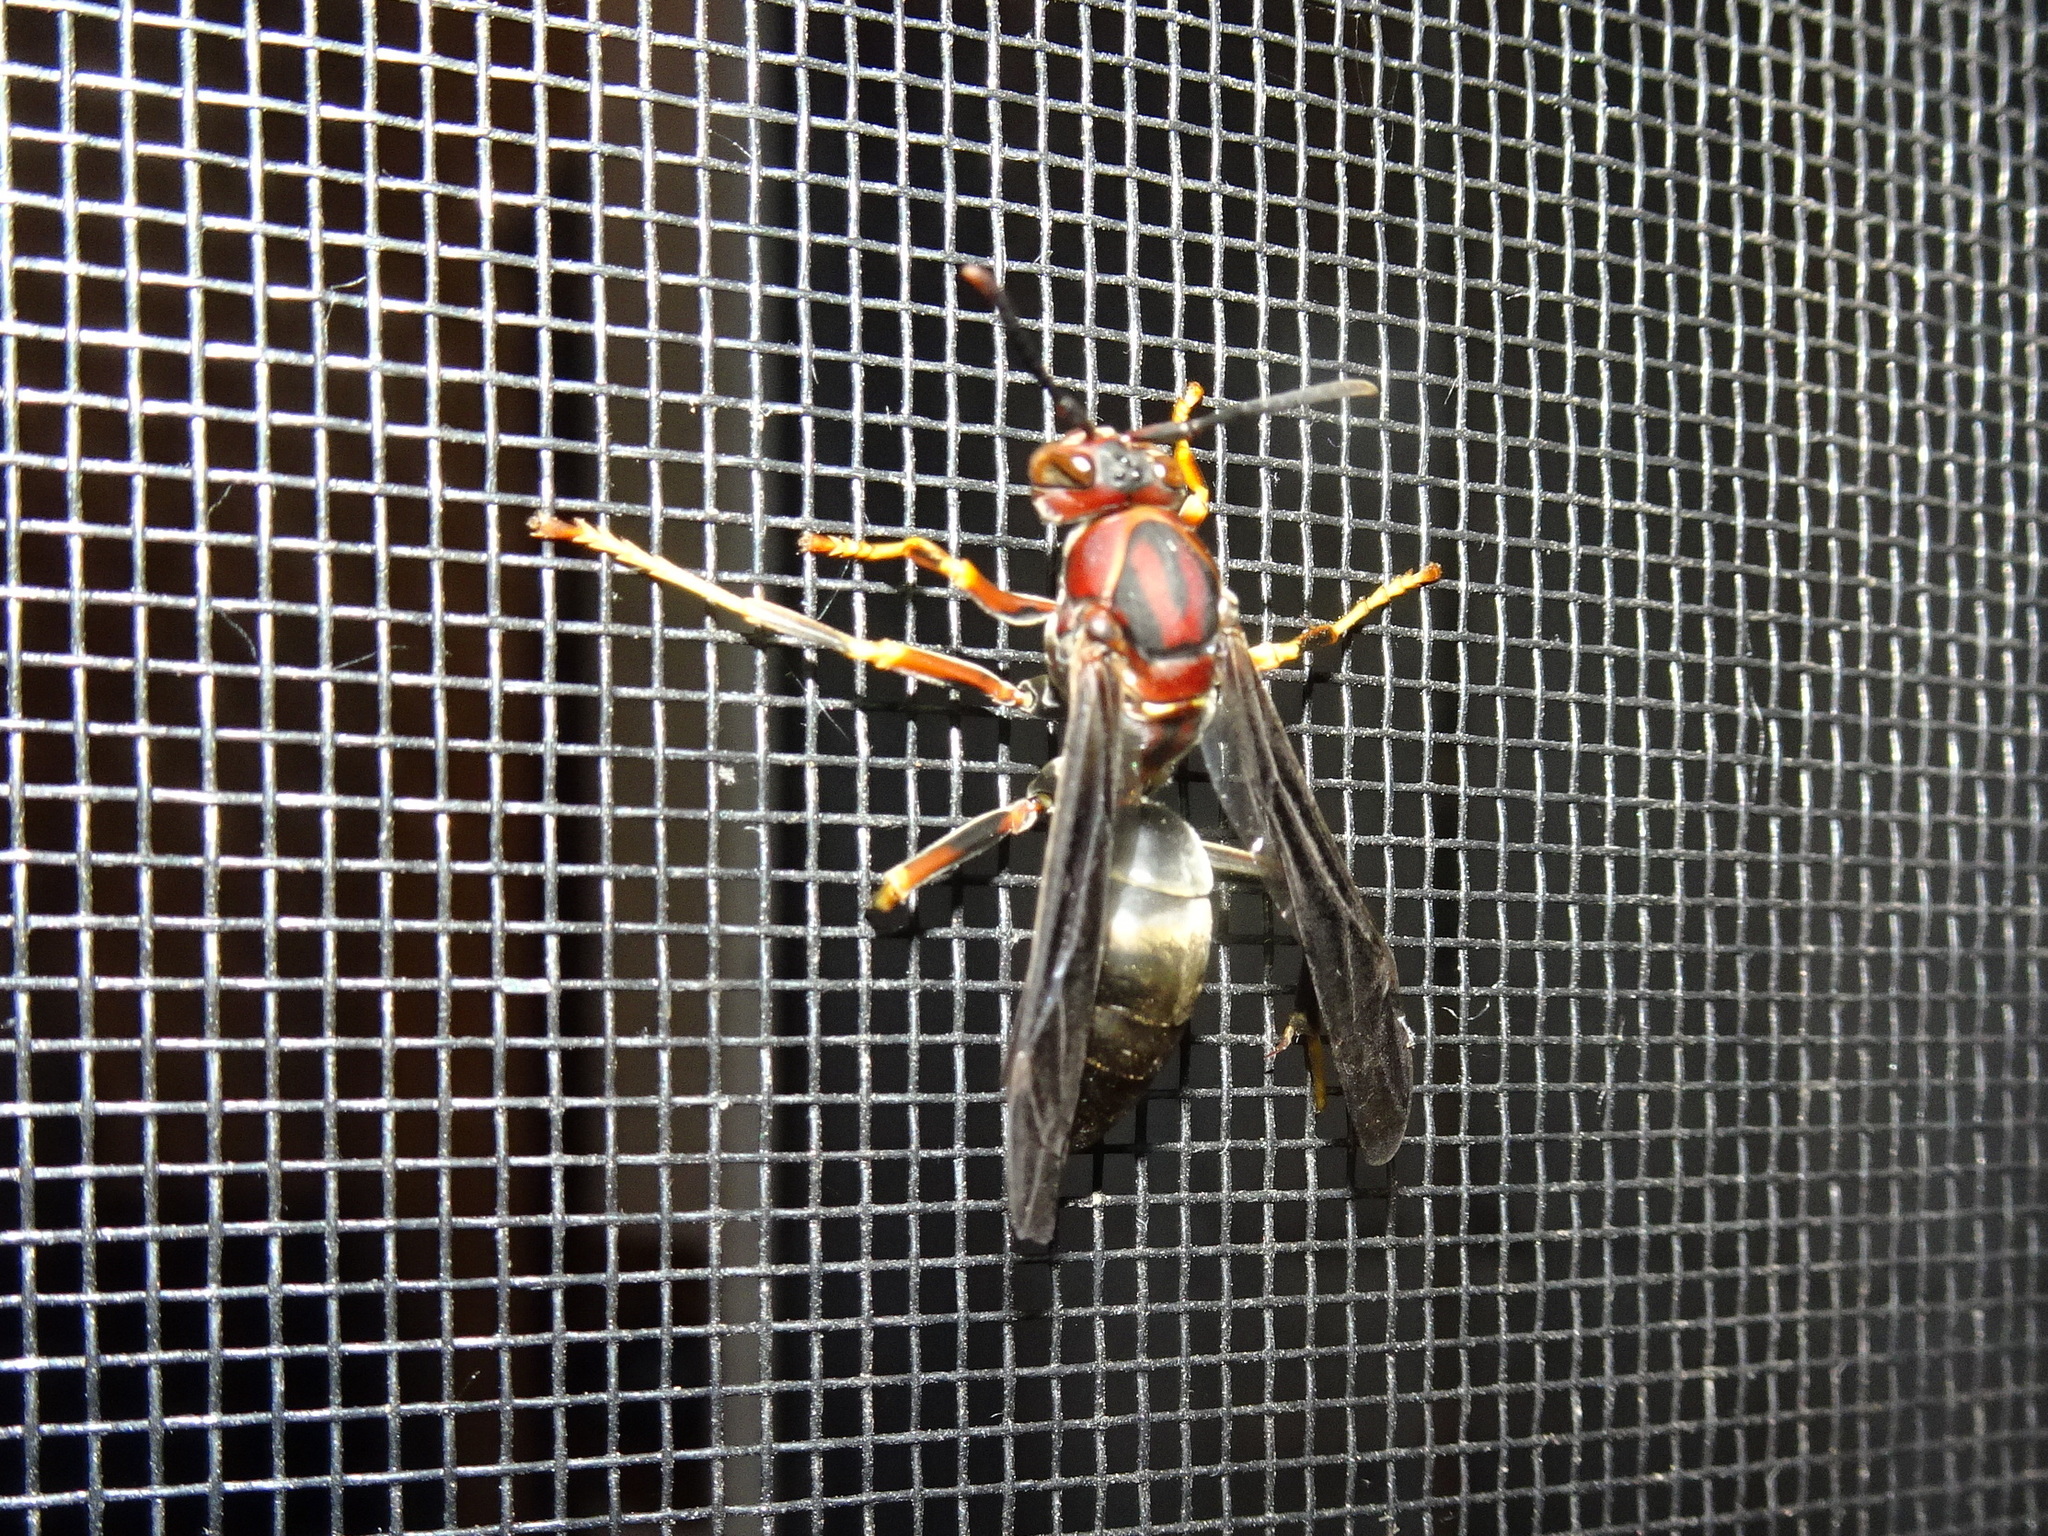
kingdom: Animalia
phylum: Arthropoda
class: Insecta
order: Hymenoptera
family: Eumenidae
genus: Polistes
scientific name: Polistes metricus
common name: Metric paper wasp
